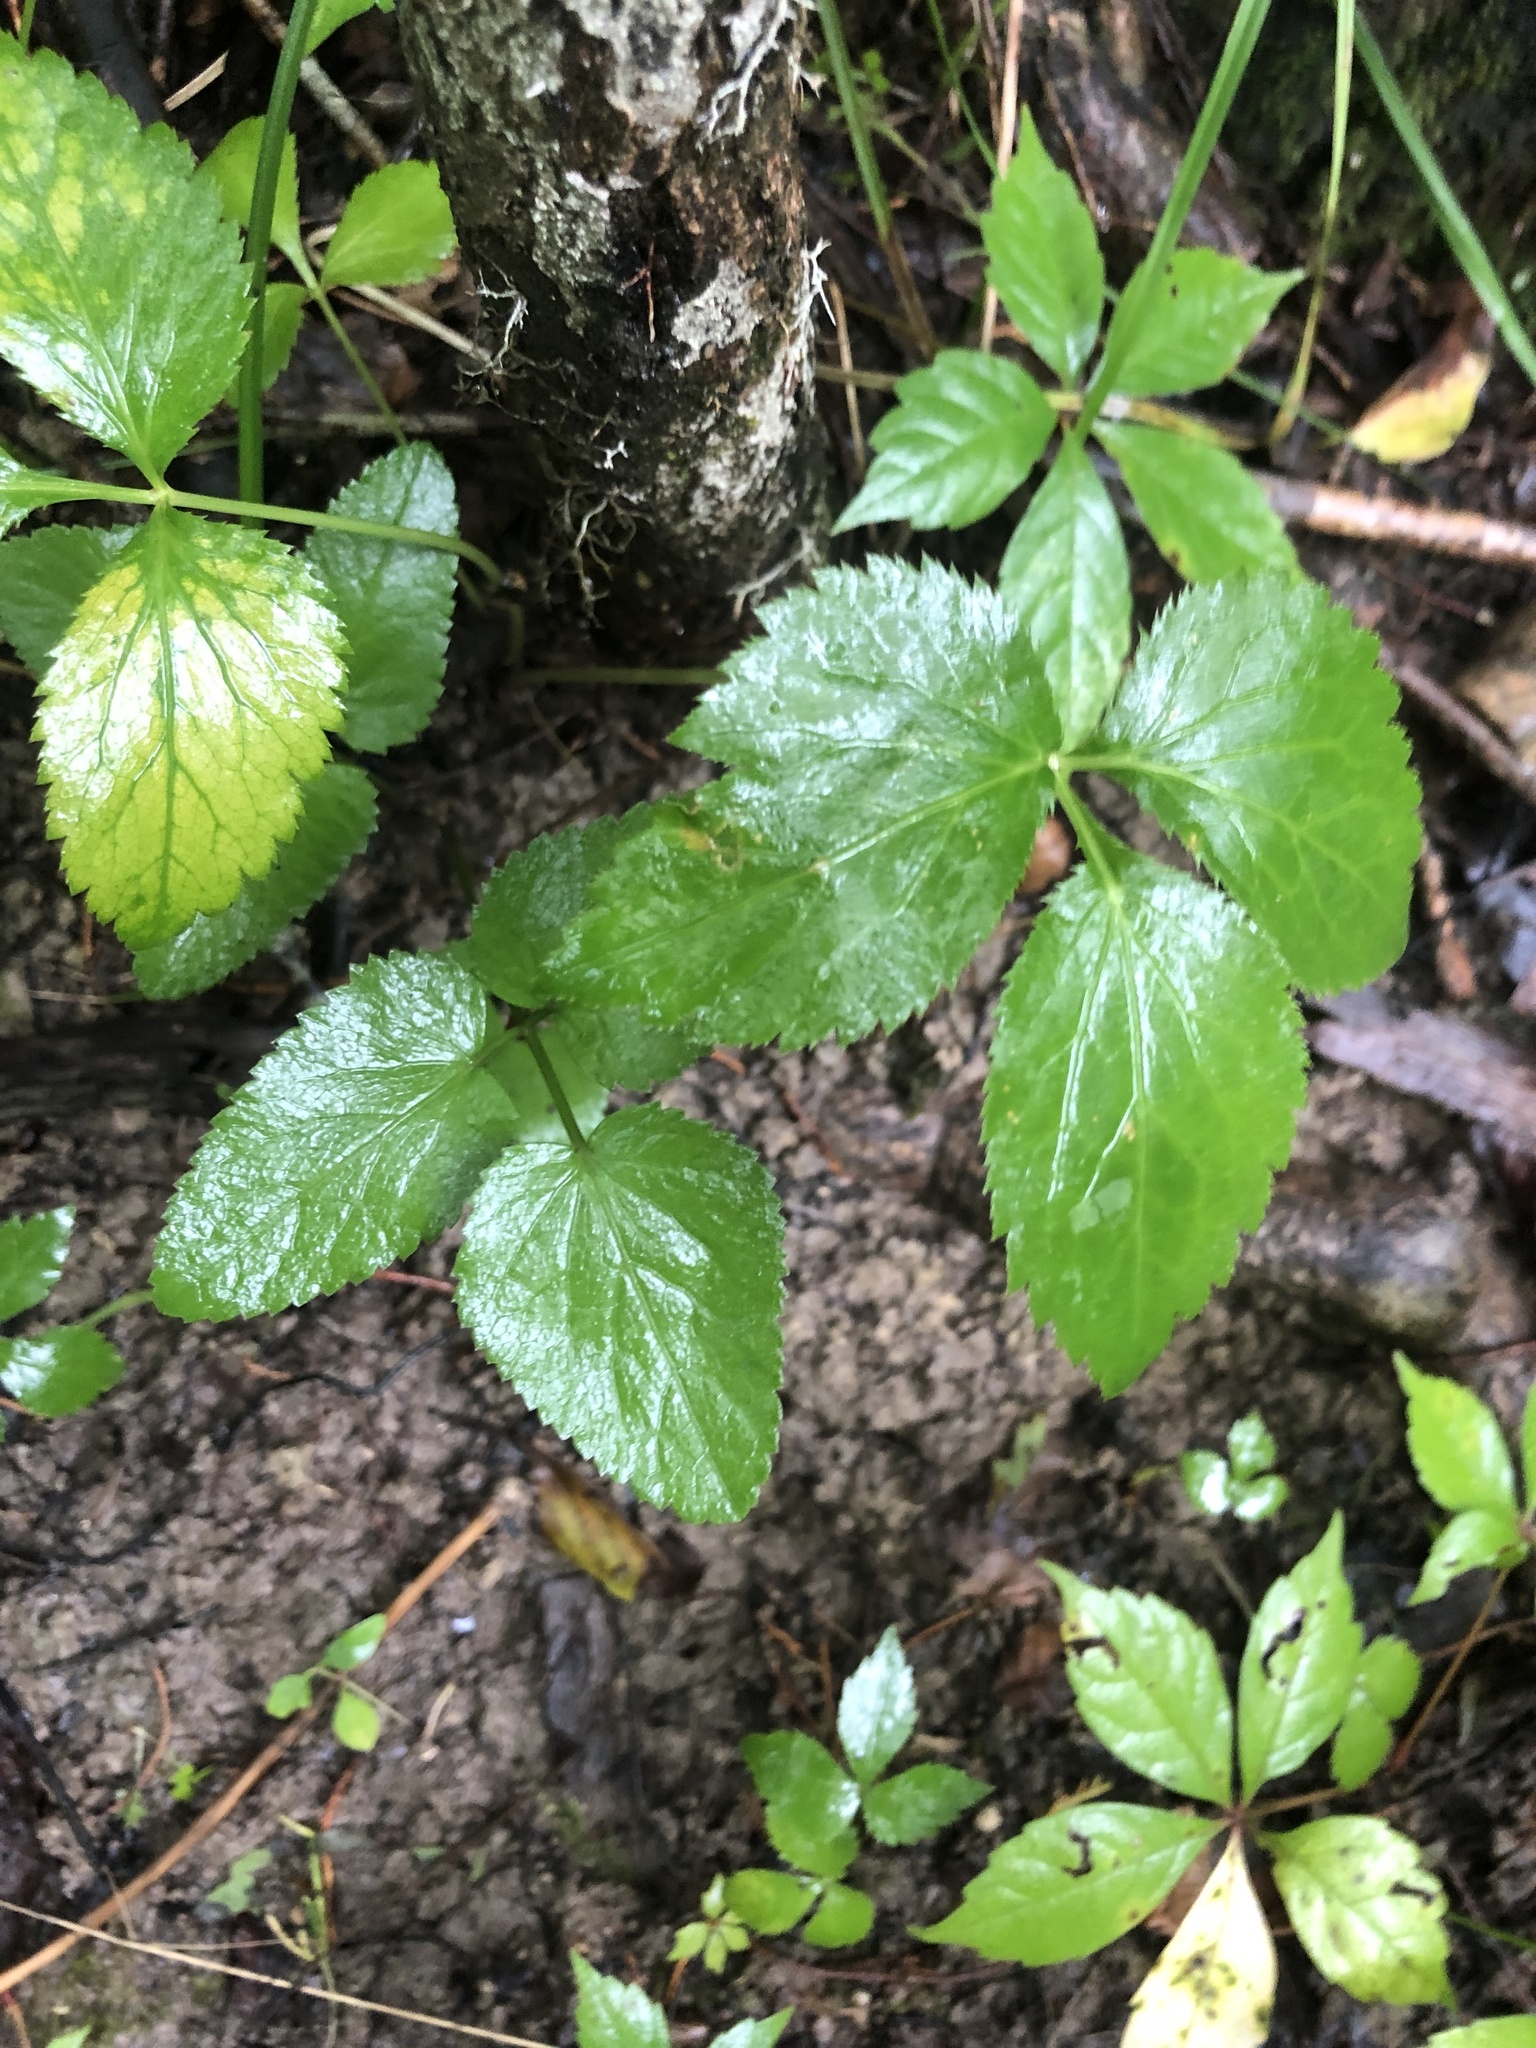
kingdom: Plantae
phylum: Tracheophyta
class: Magnoliopsida
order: Apiales
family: Apiaceae
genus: Cryptotaenia
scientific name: Cryptotaenia canadensis
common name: Honewort
